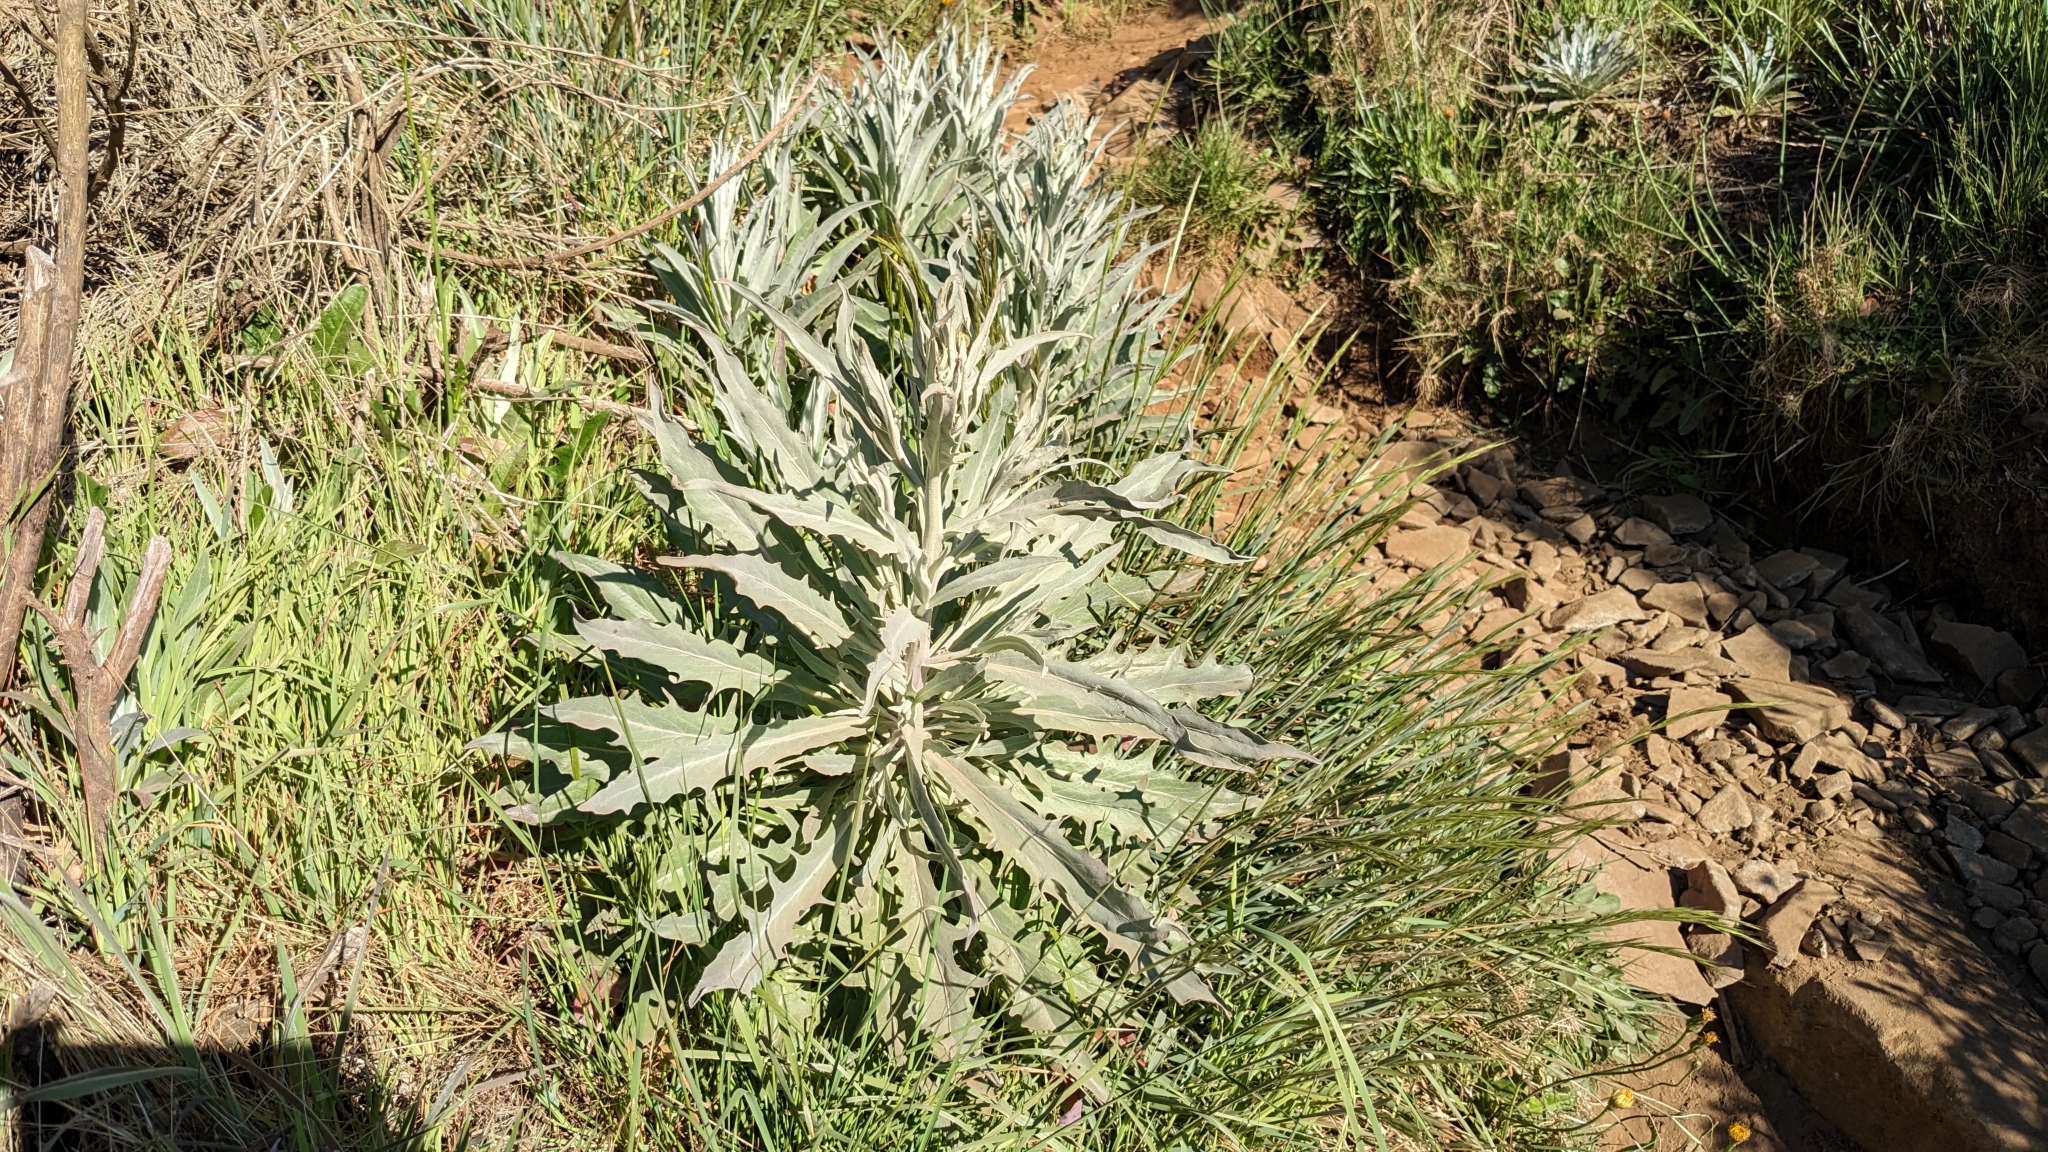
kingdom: Plantae
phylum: Tracheophyta
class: Magnoliopsida
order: Asterales
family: Asteraceae
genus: Andryala
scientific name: Andryala glandulosa
